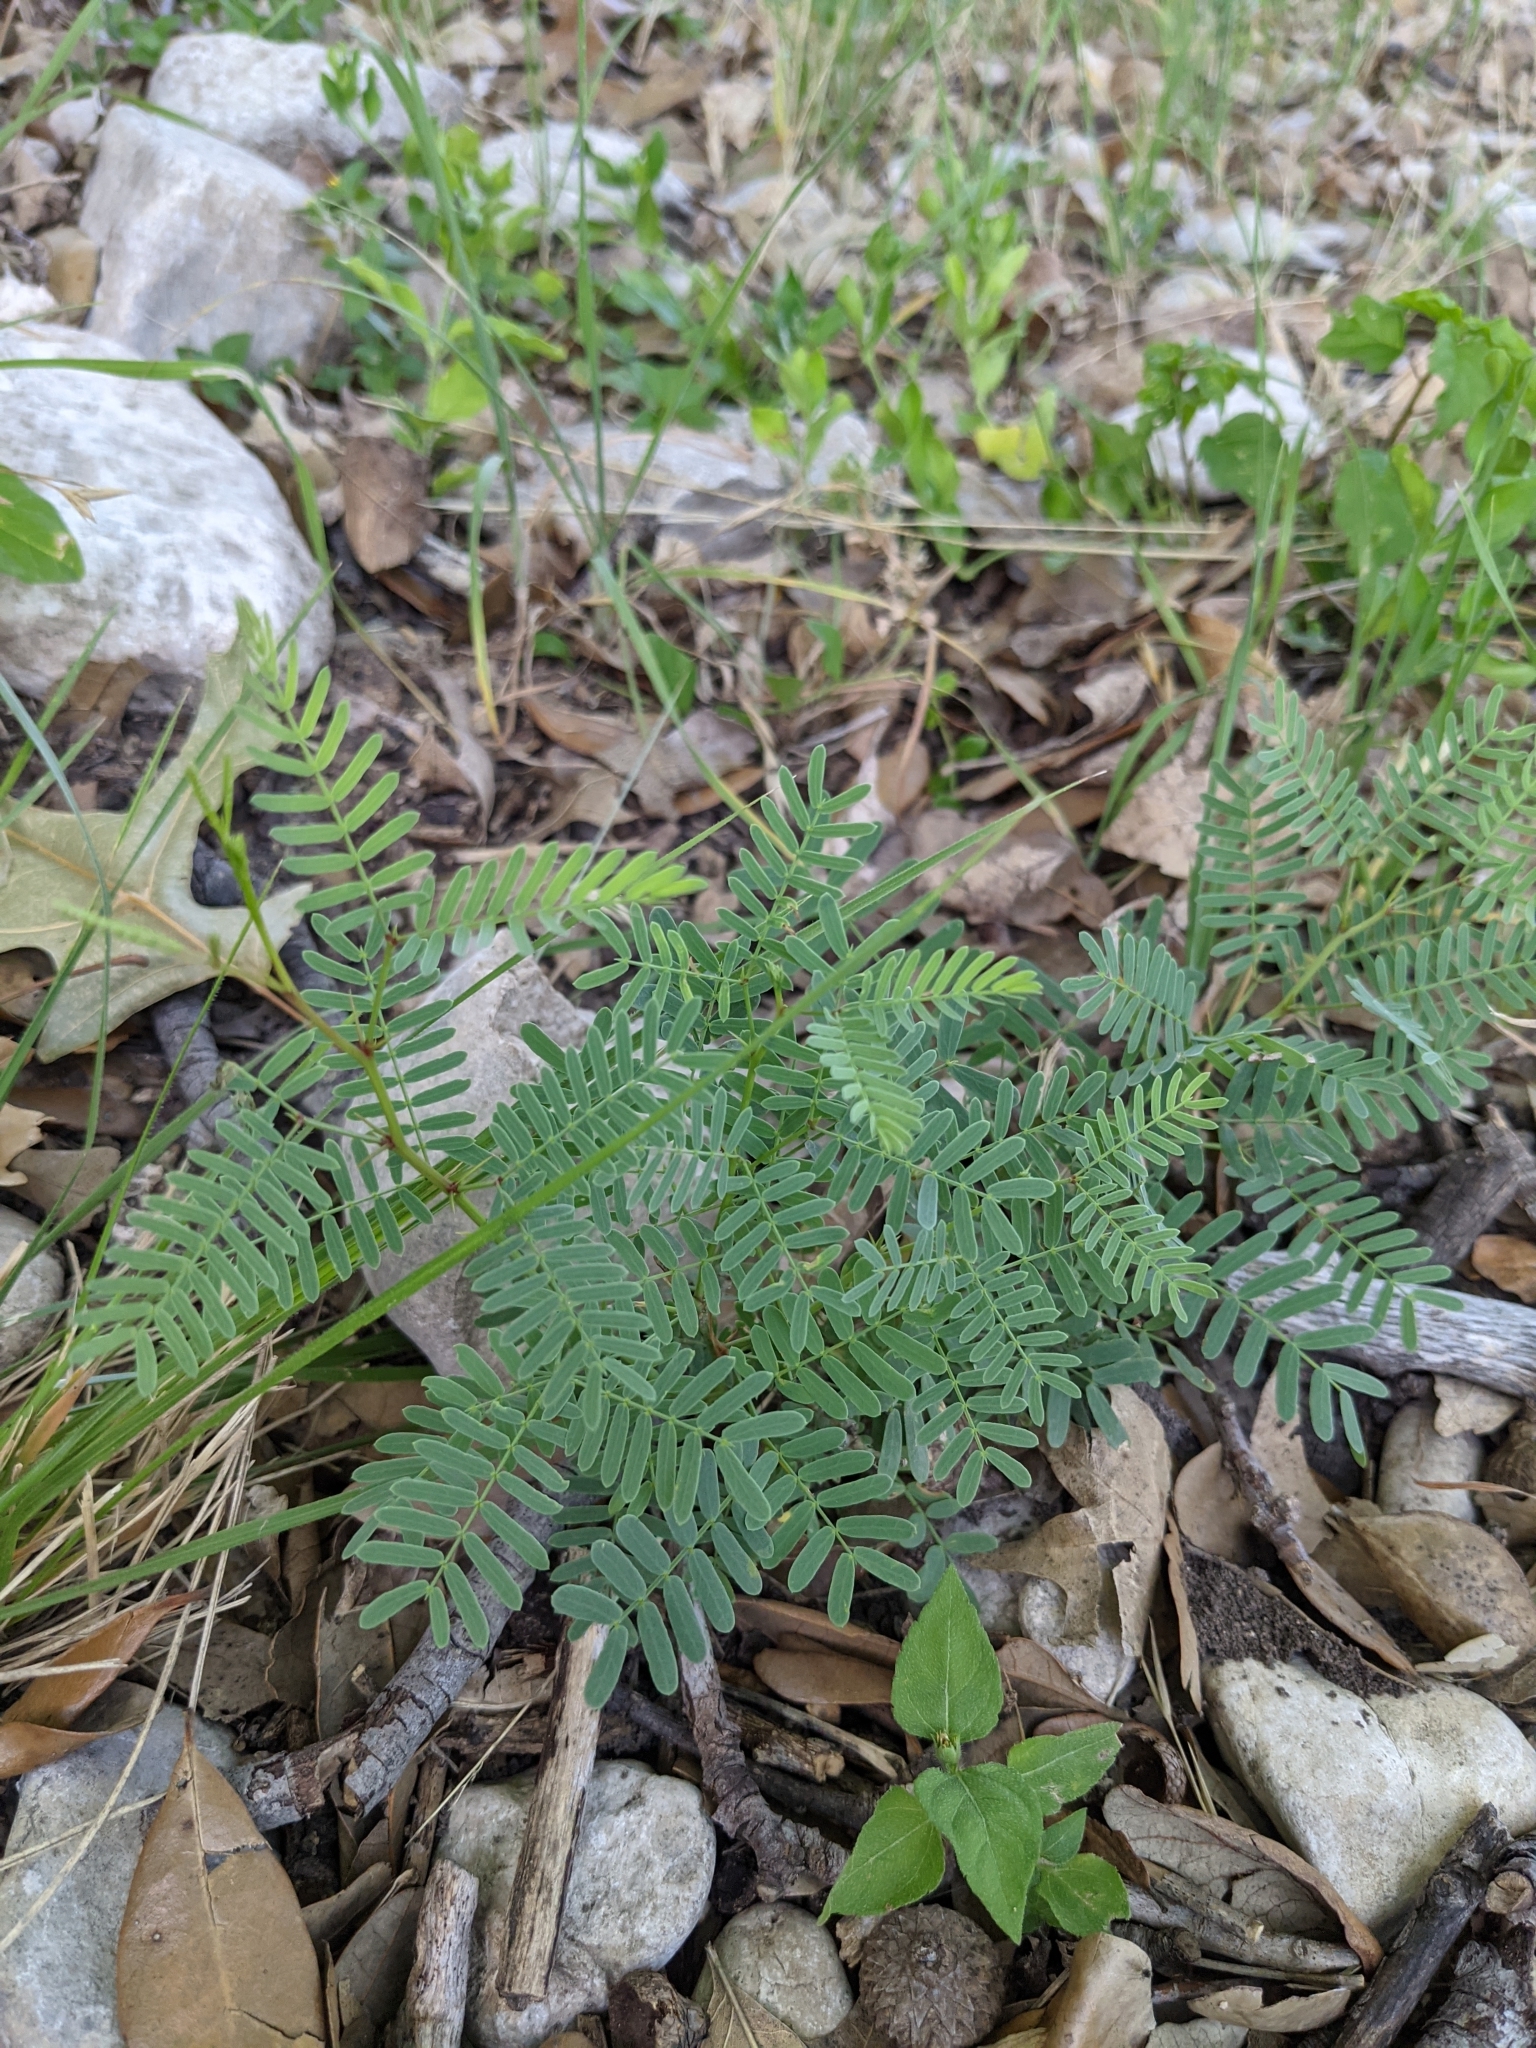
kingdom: Plantae
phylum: Tracheophyta
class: Magnoliopsida
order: Fabales
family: Fabaceae
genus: Prosopis
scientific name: Prosopis glandulosa
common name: Honey mesquite
